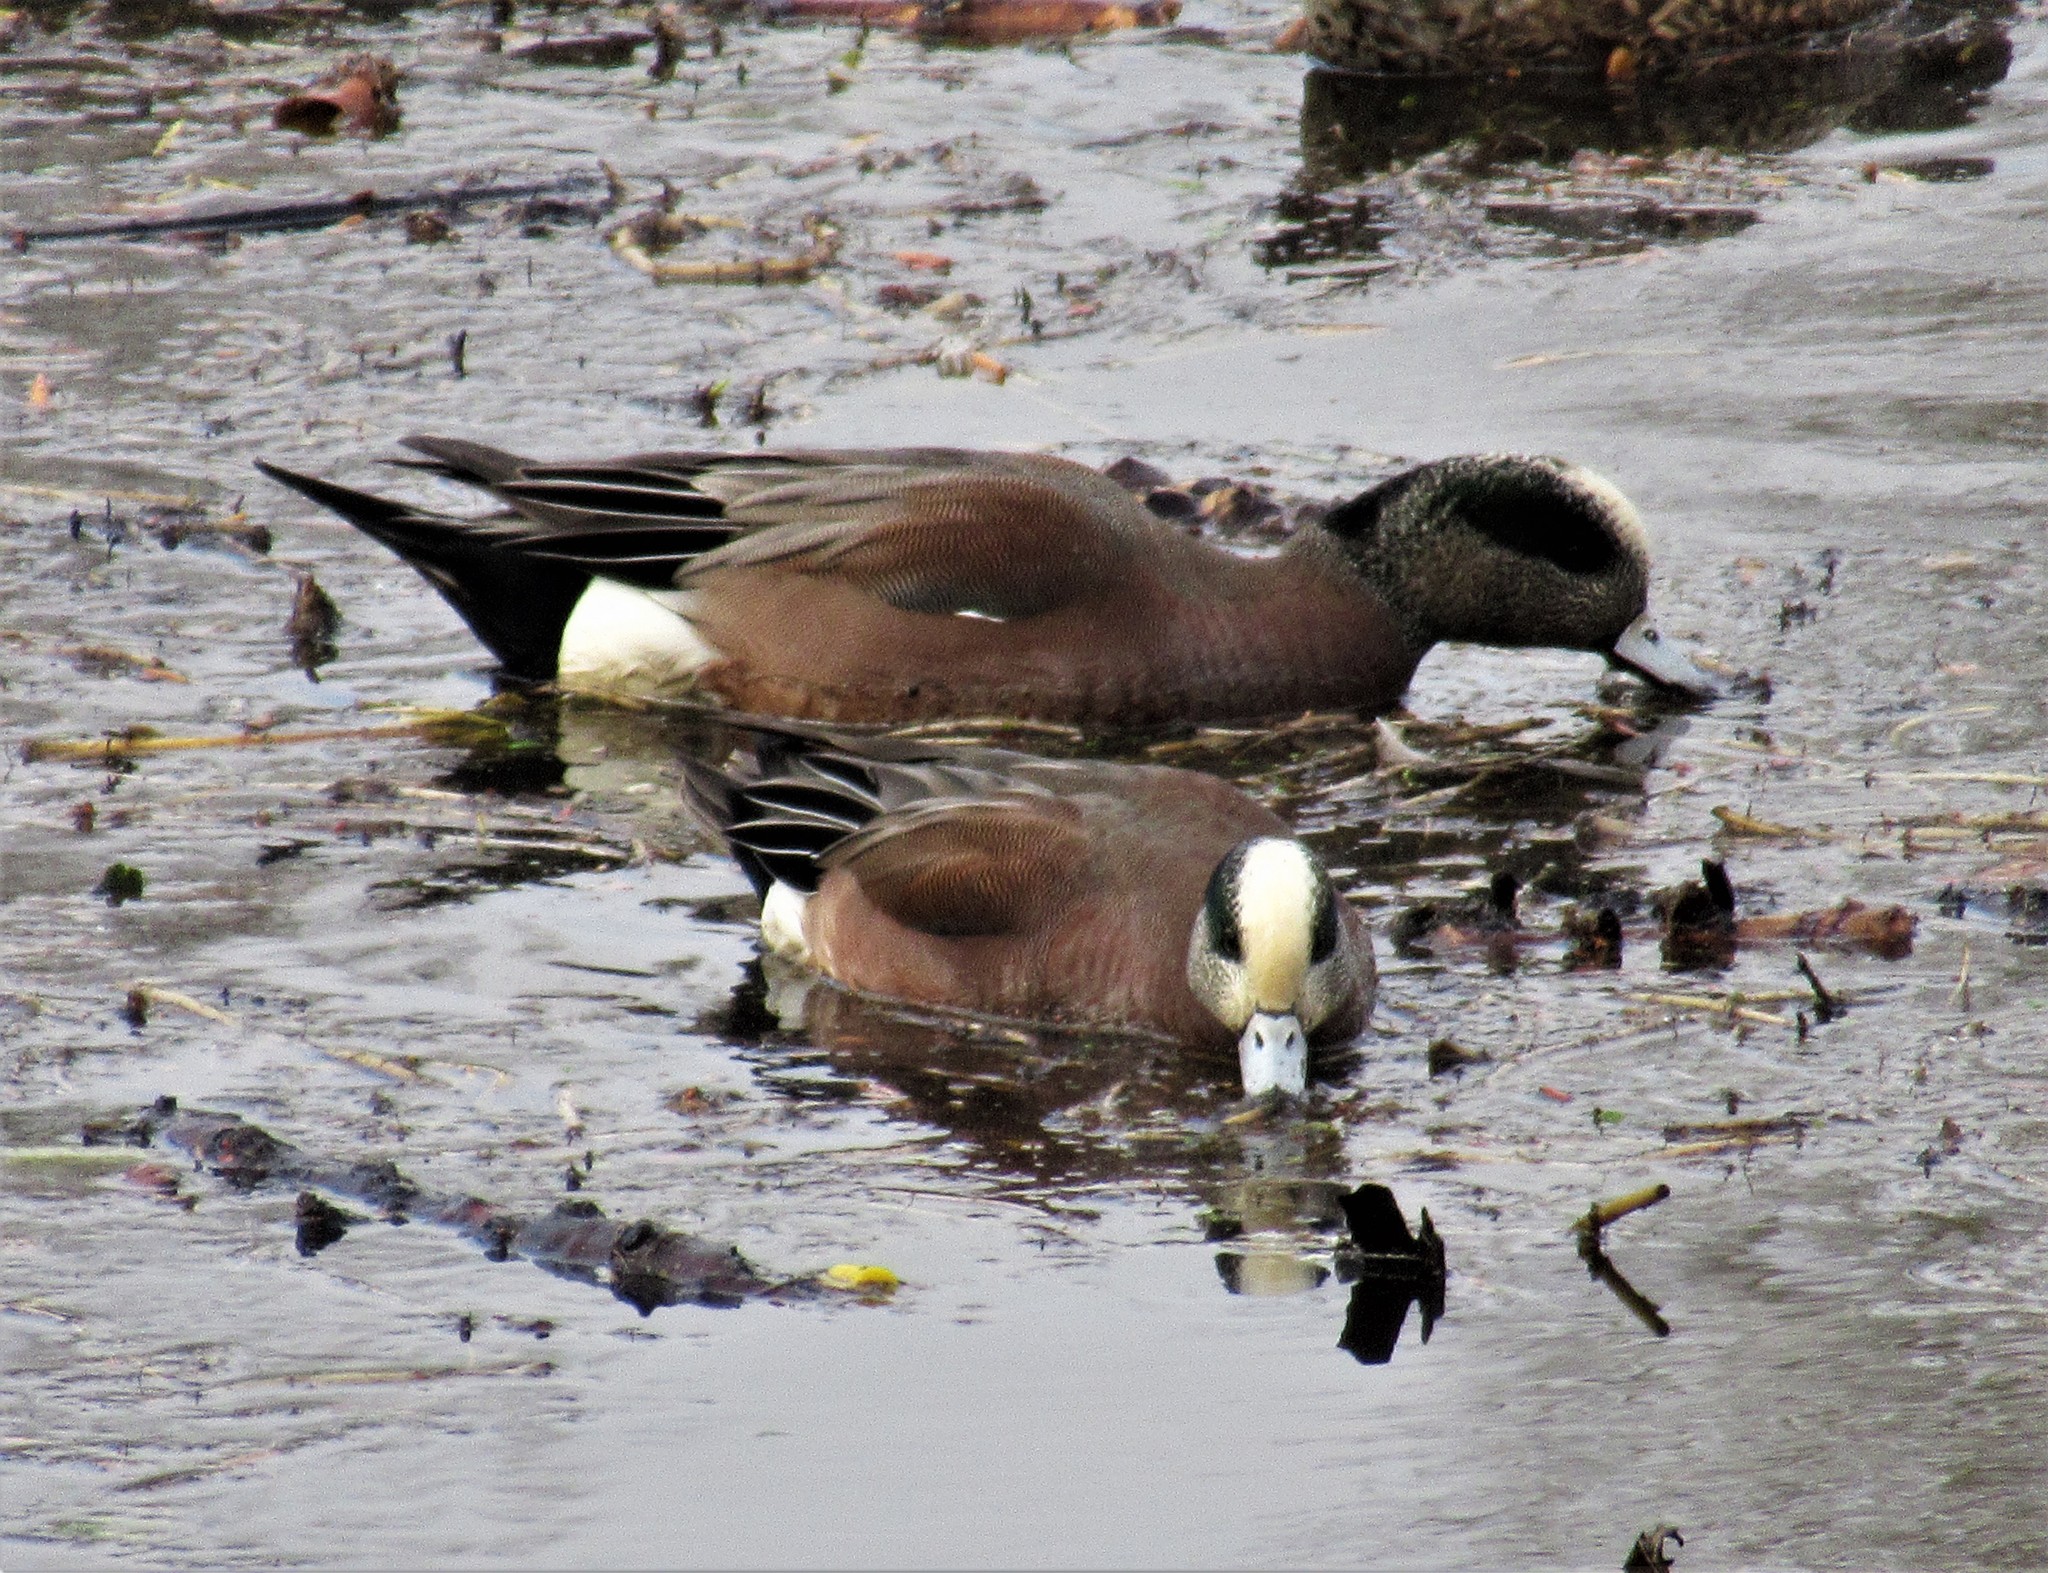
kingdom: Animalia
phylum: Chordata
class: Aves
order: Anseriformes
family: Anatidae
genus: Mareca
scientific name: Mareca americana
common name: American wigeon
